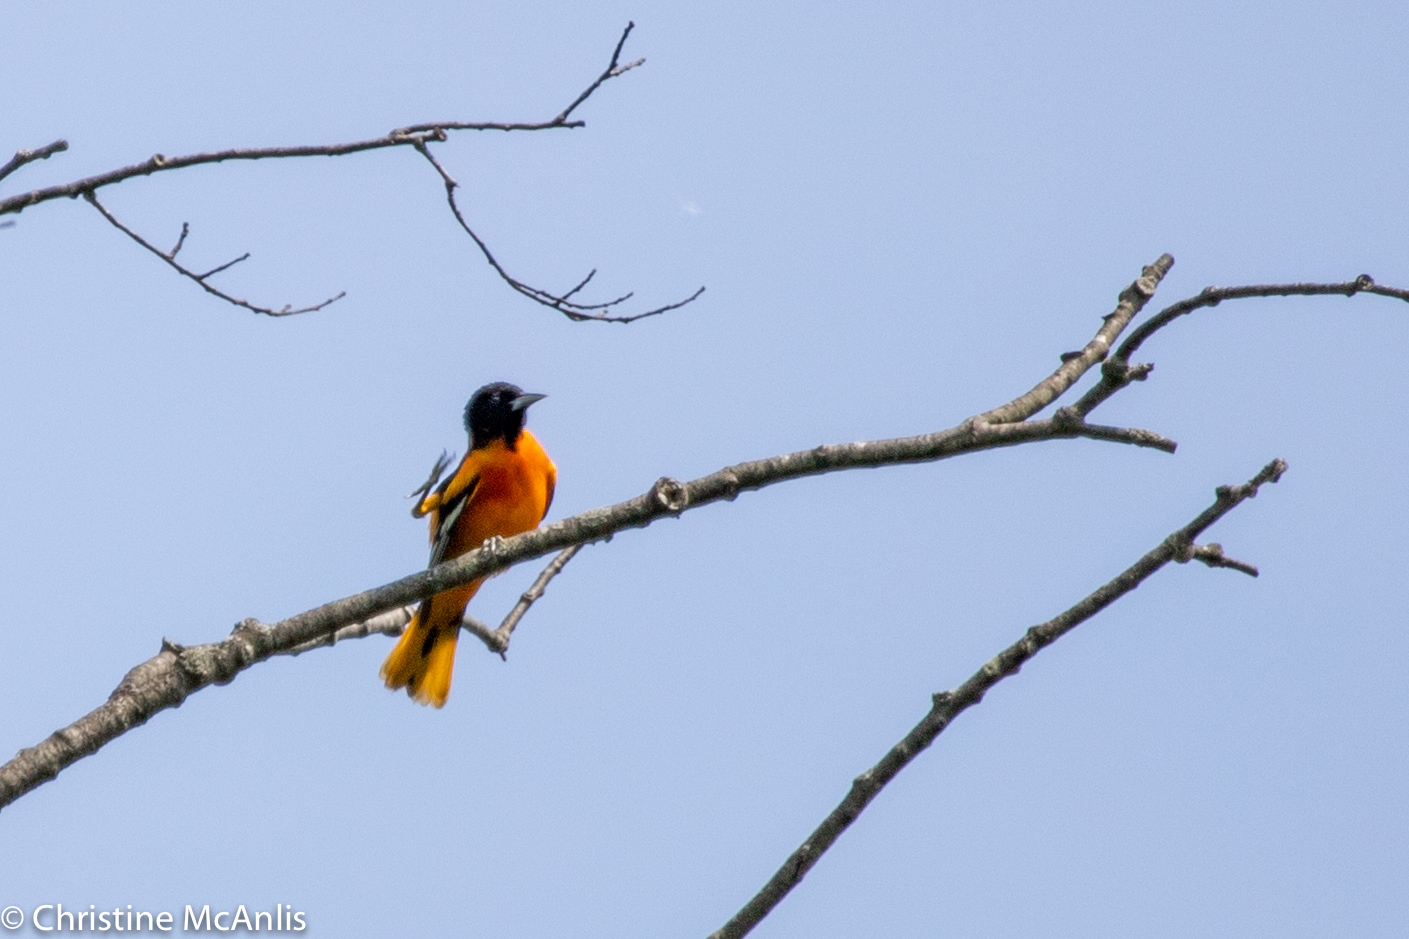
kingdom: Animalia
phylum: Chordata
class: Aves
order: Passeriformes
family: Icteridae
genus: Icterus
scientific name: Icterus galbula
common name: Baltimore oriole
